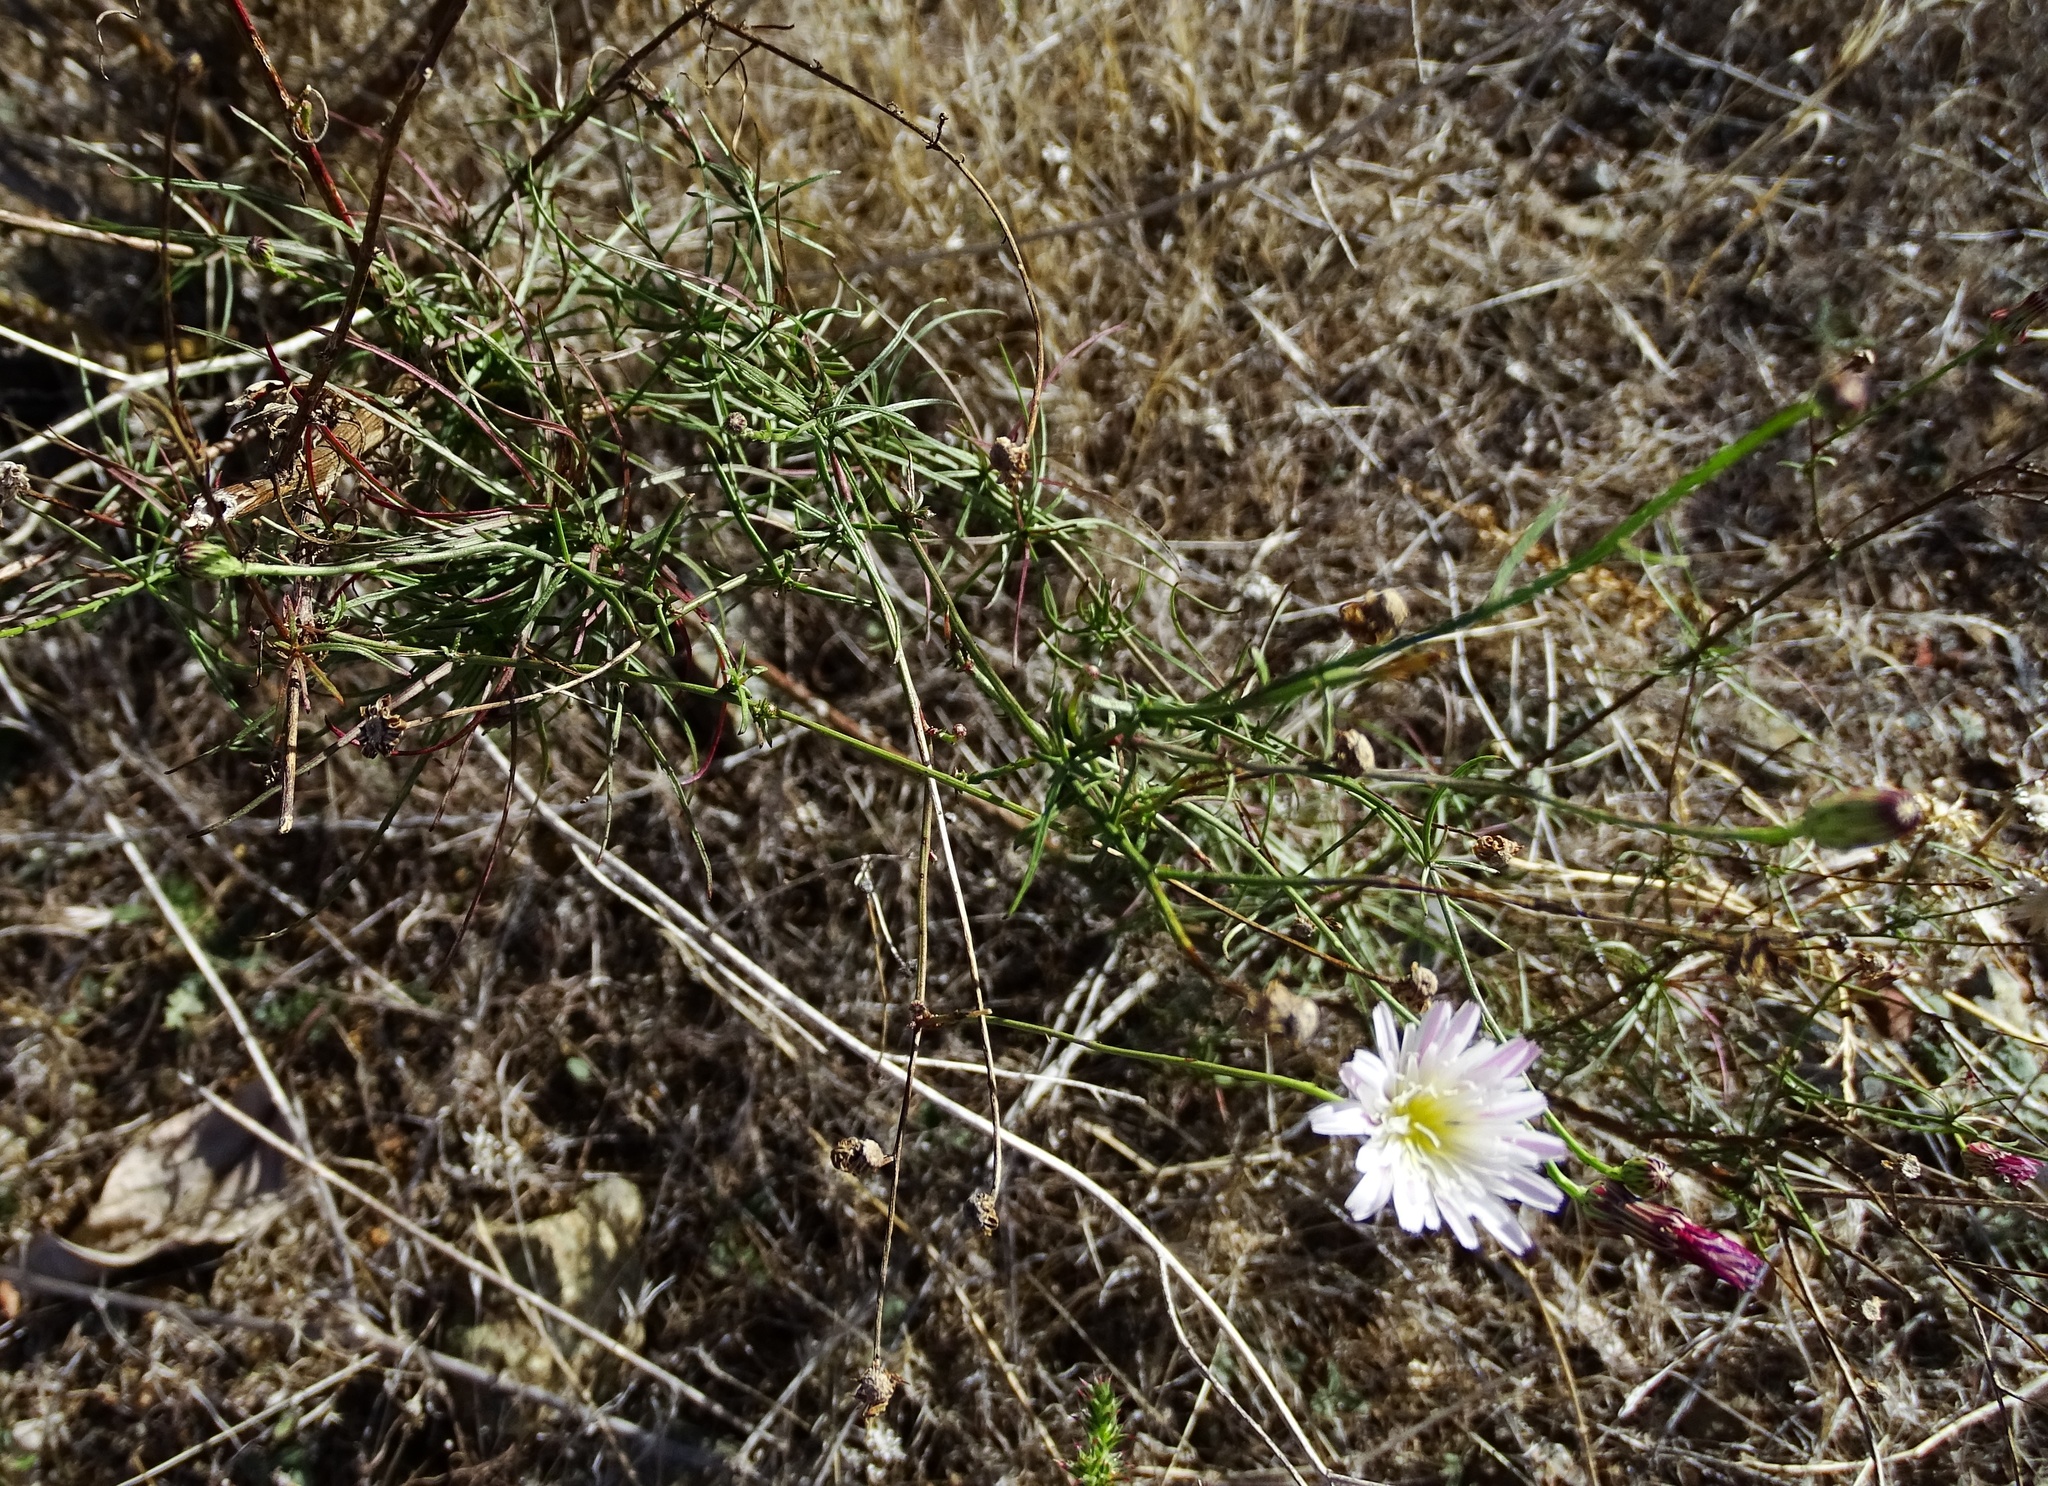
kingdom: Plantae
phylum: Tracheophyta
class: Magnoliopsida
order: Asterales
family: Asteraceae
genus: Malacothrix
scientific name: Malacothrix saxatilis
